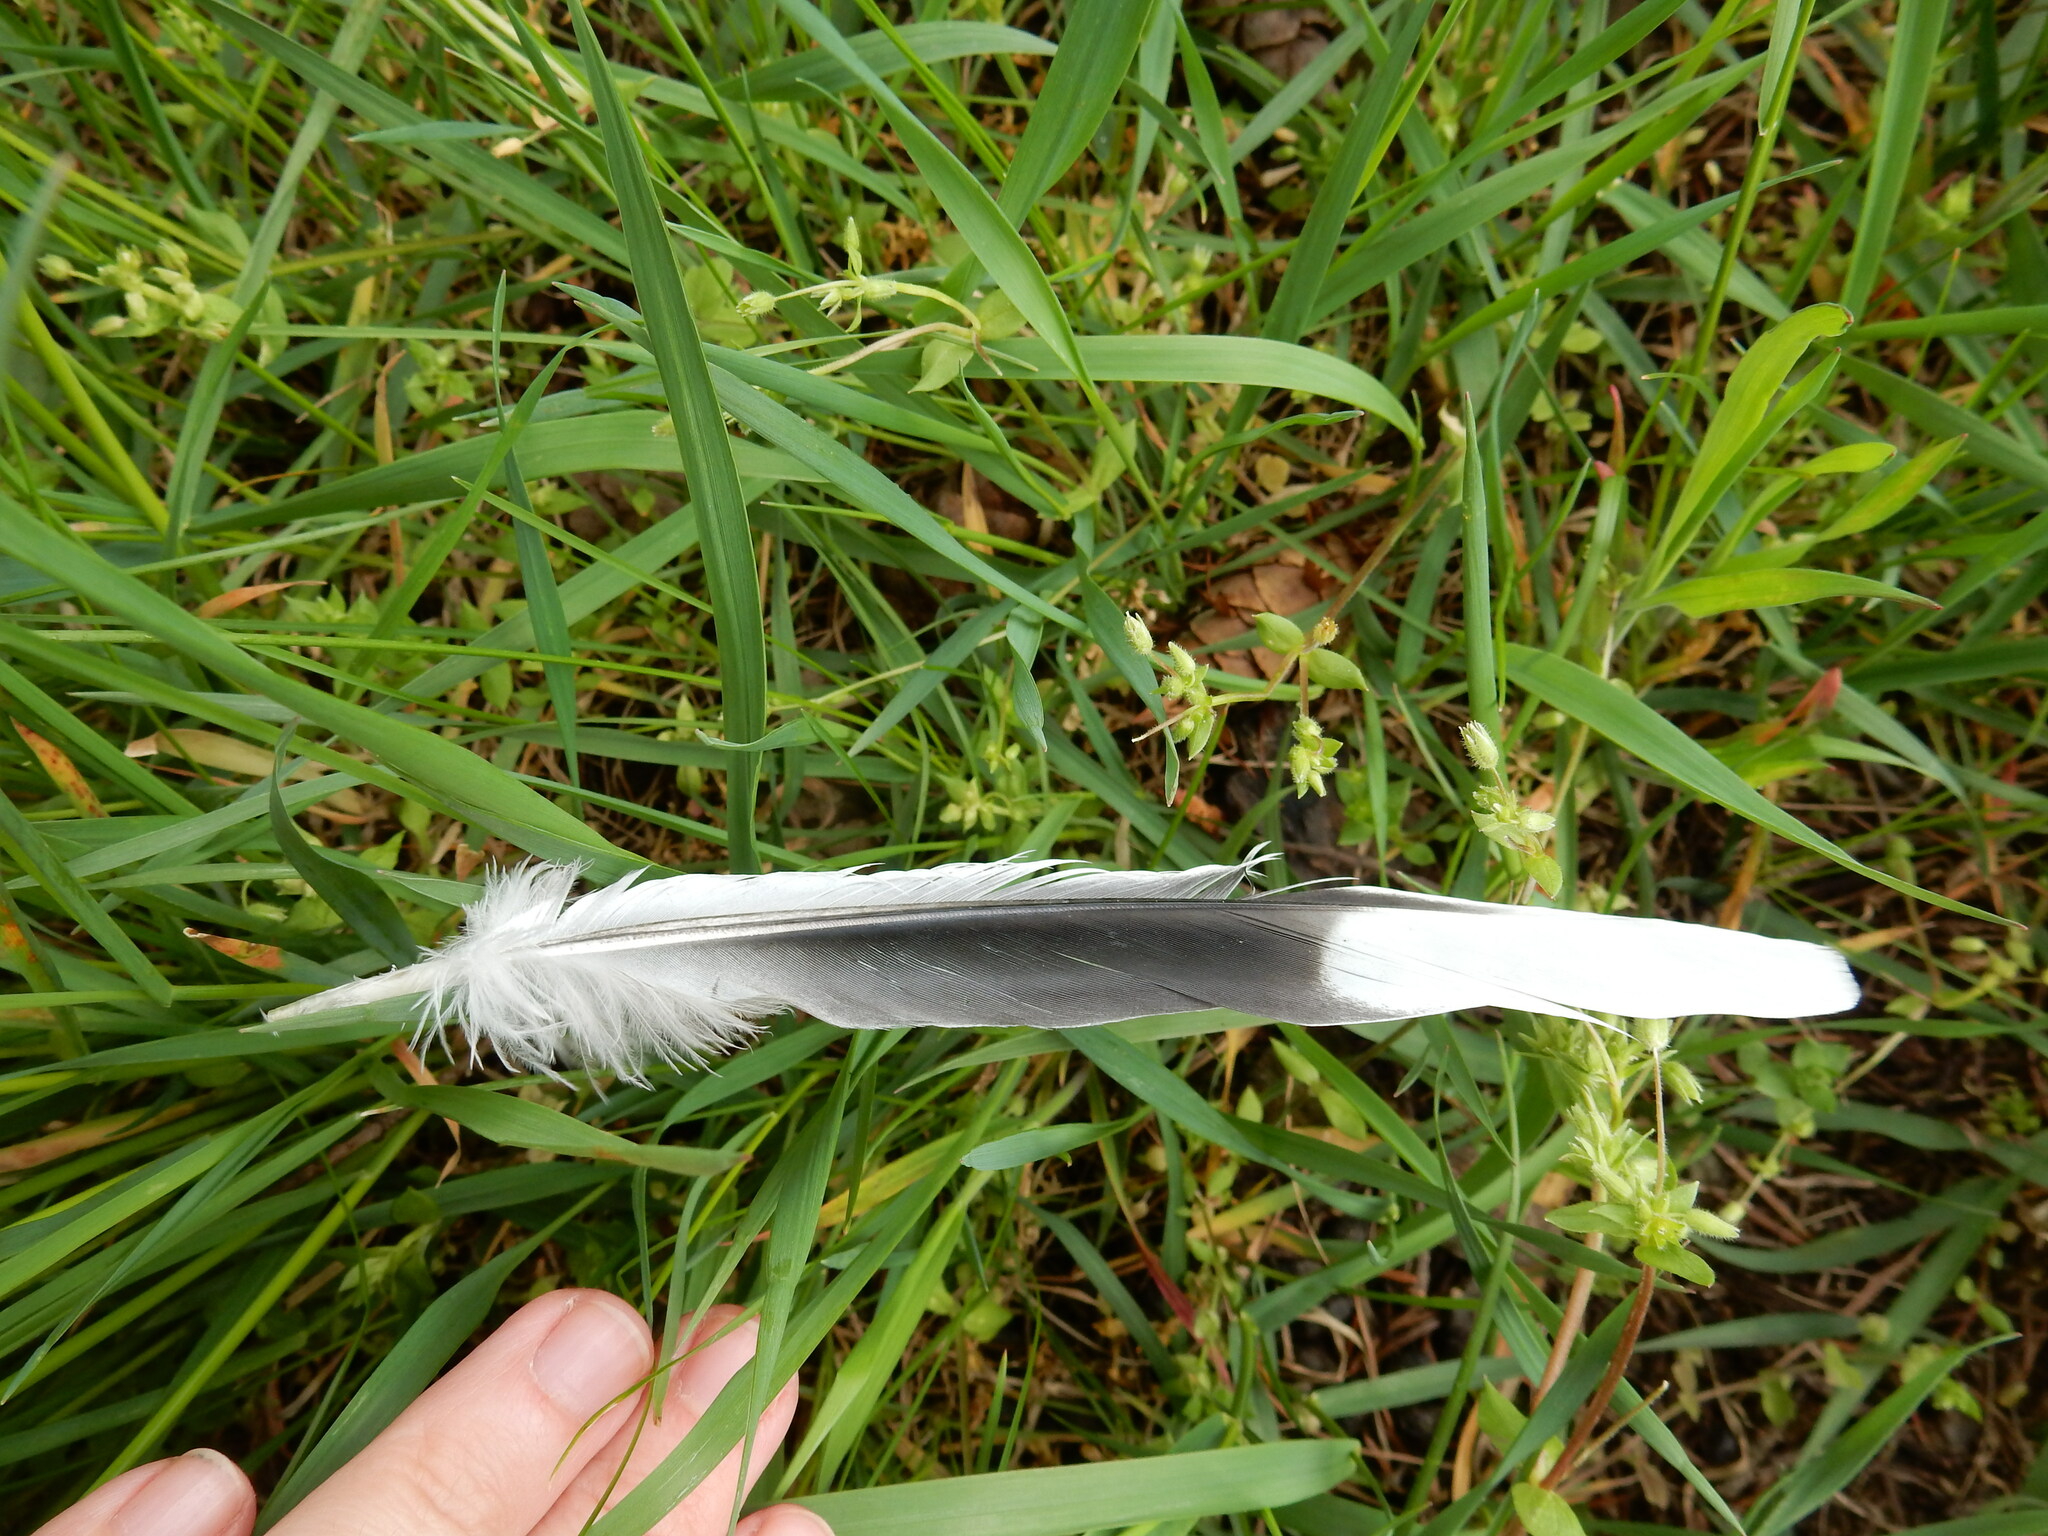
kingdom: Animalia
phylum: Chordata
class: Aves
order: Columbiformes
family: Columbidae
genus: Streptopelia
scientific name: Streptopelia decaocto
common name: Eurasian collared dove
